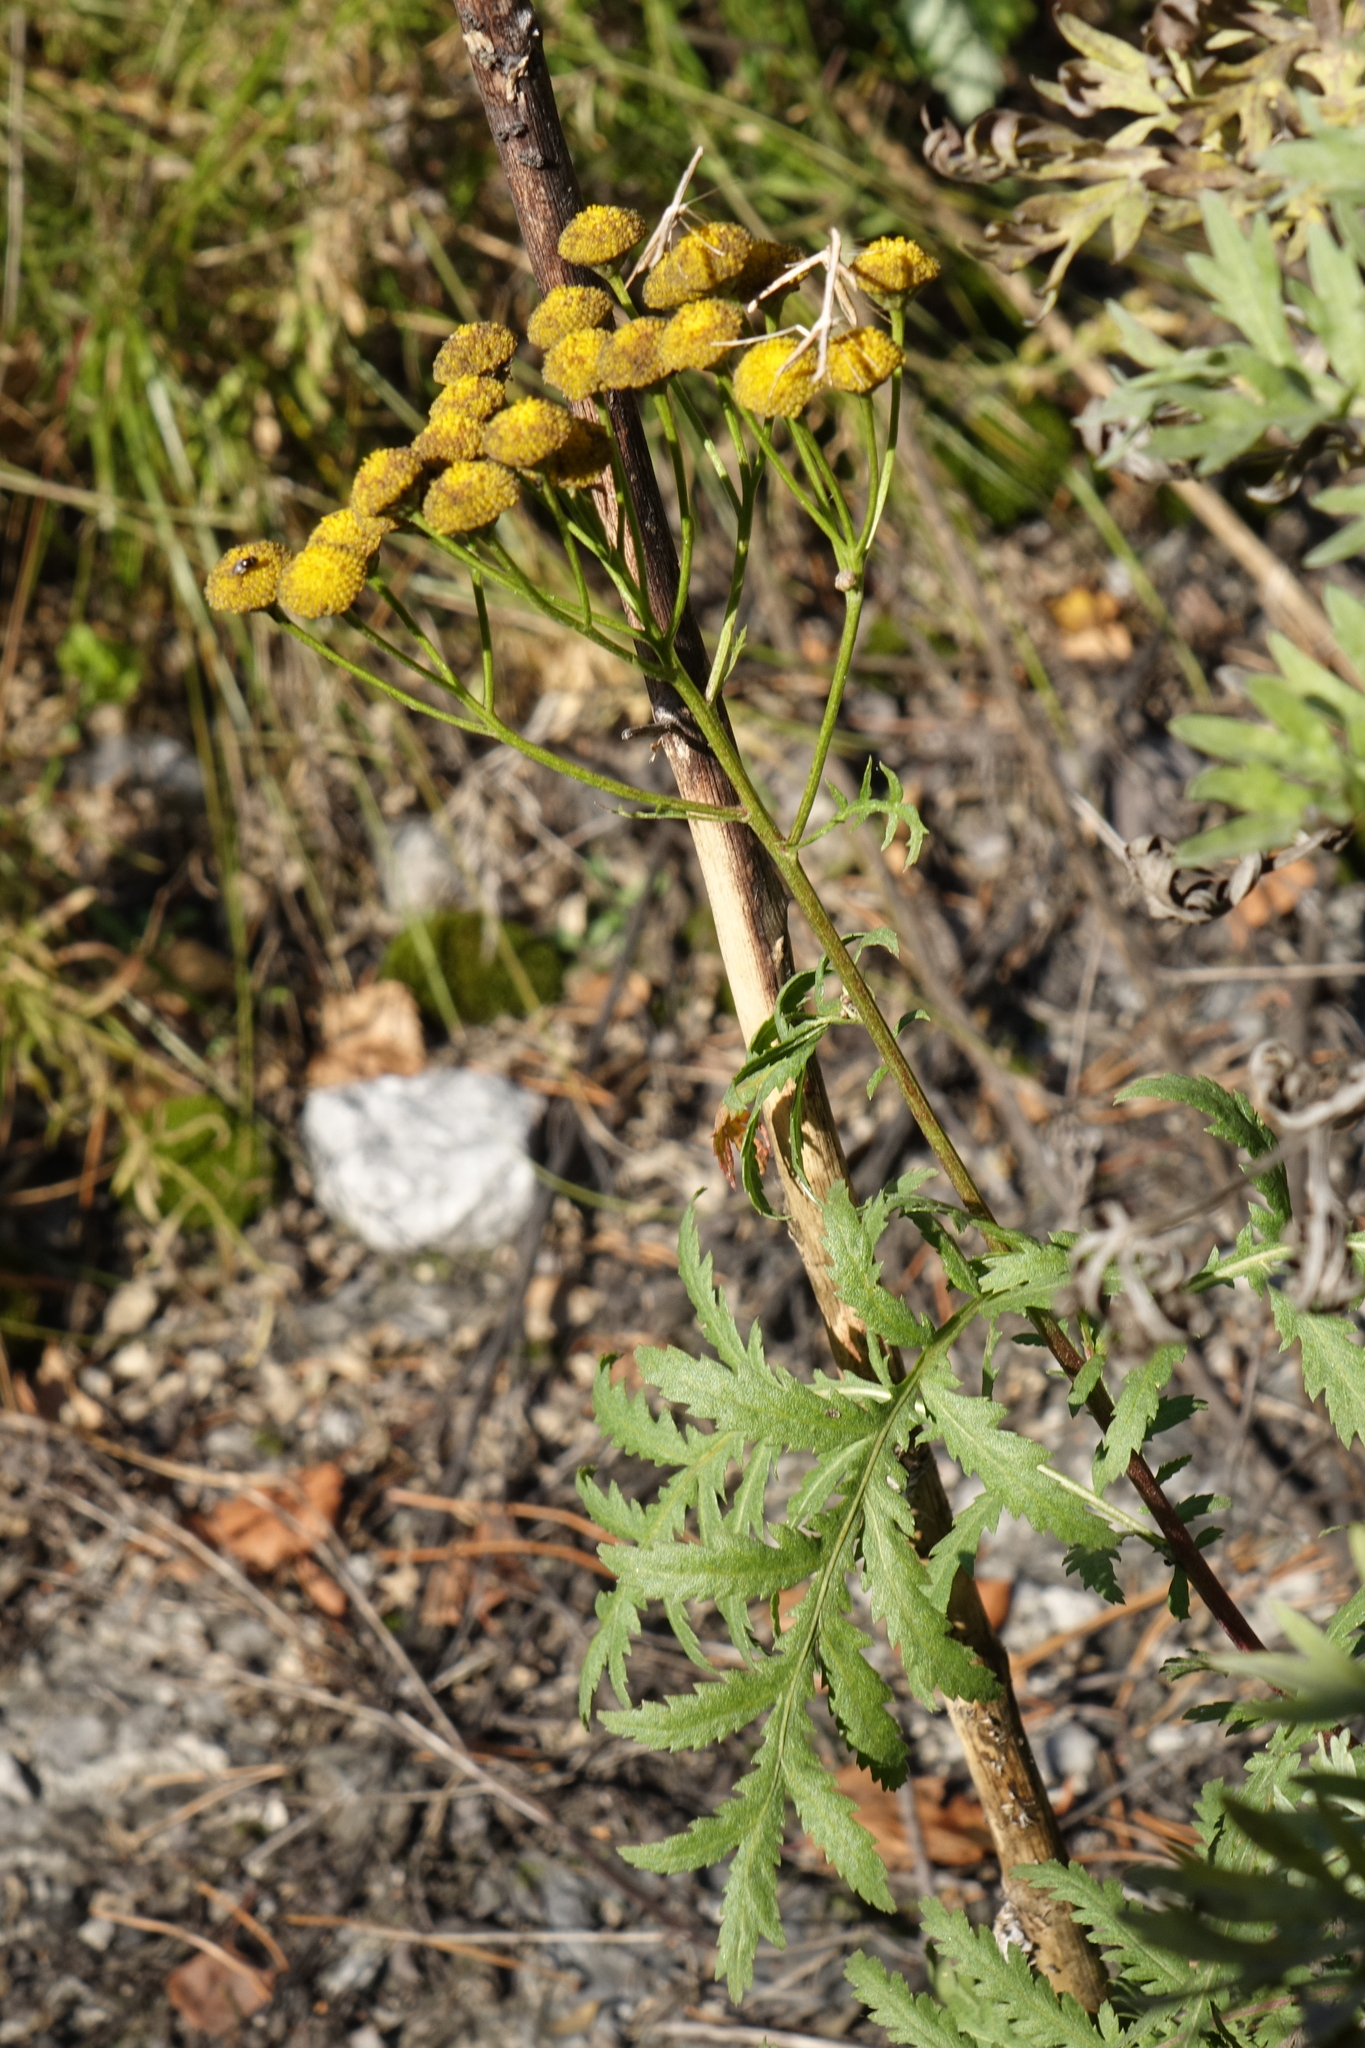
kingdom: Plantae
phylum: Tracheophyta
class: Magnoliopsida
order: Asterales
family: Asteraceae
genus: Tanacetum
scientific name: Tanacetum vulgare
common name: Common tansy
